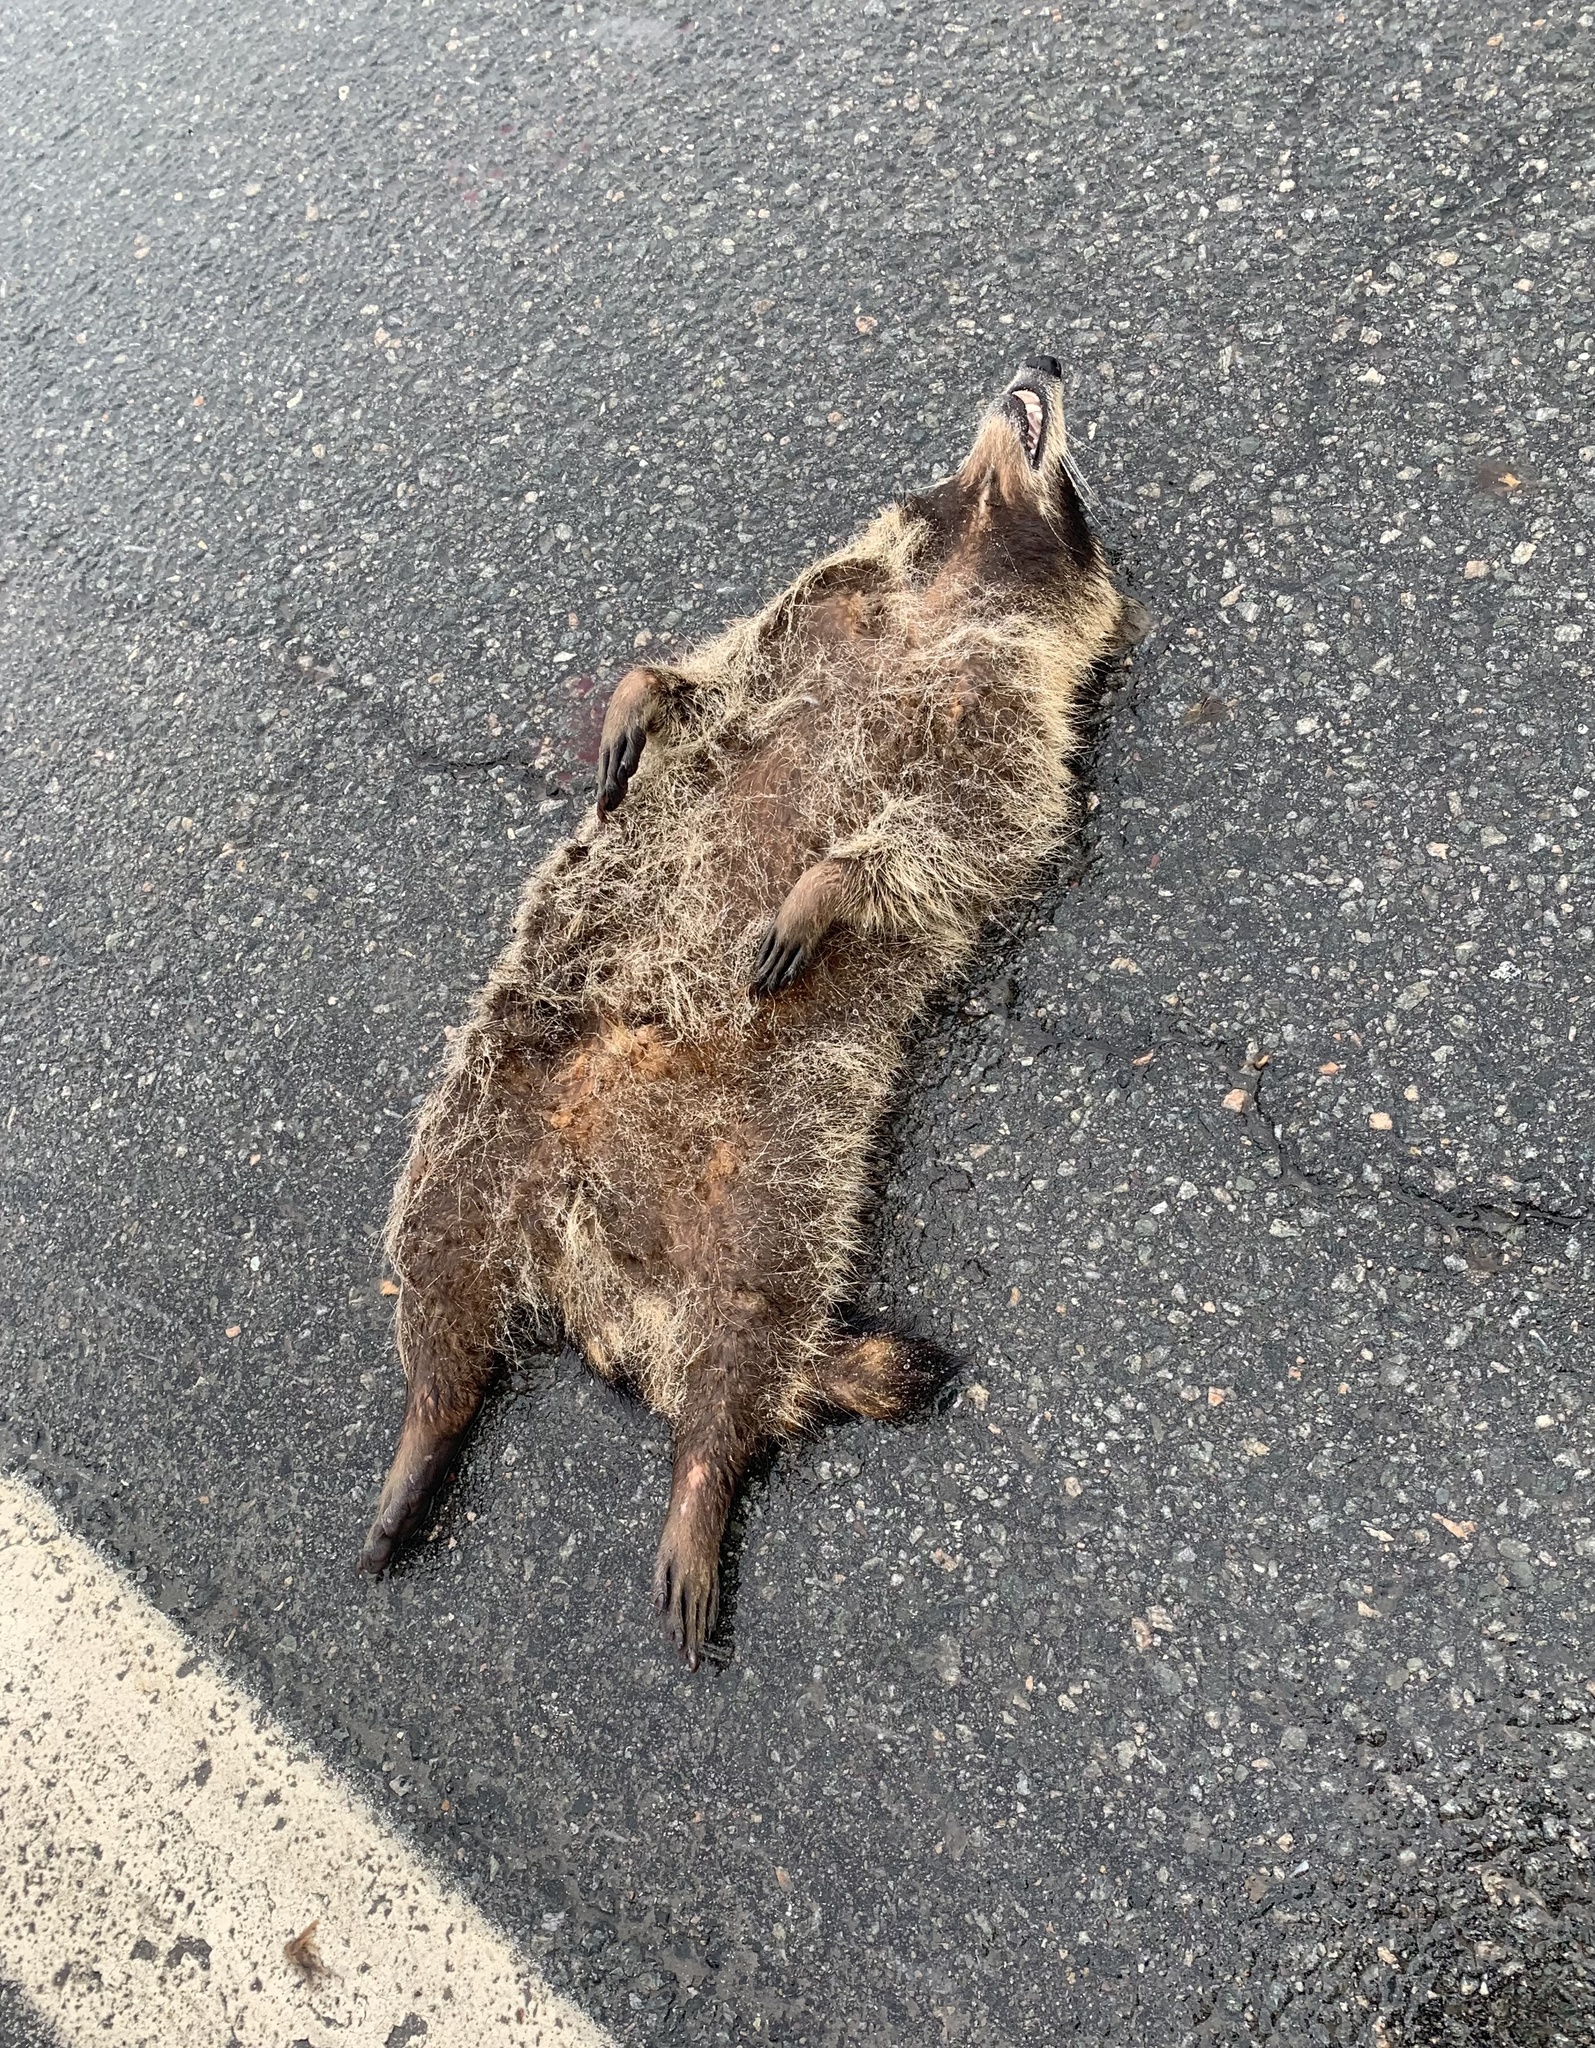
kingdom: Animalia
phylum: Chordata
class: Mammalia
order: Carnivora
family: Procyonidae
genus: Procyon
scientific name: Procyon lotor
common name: Raccoon
